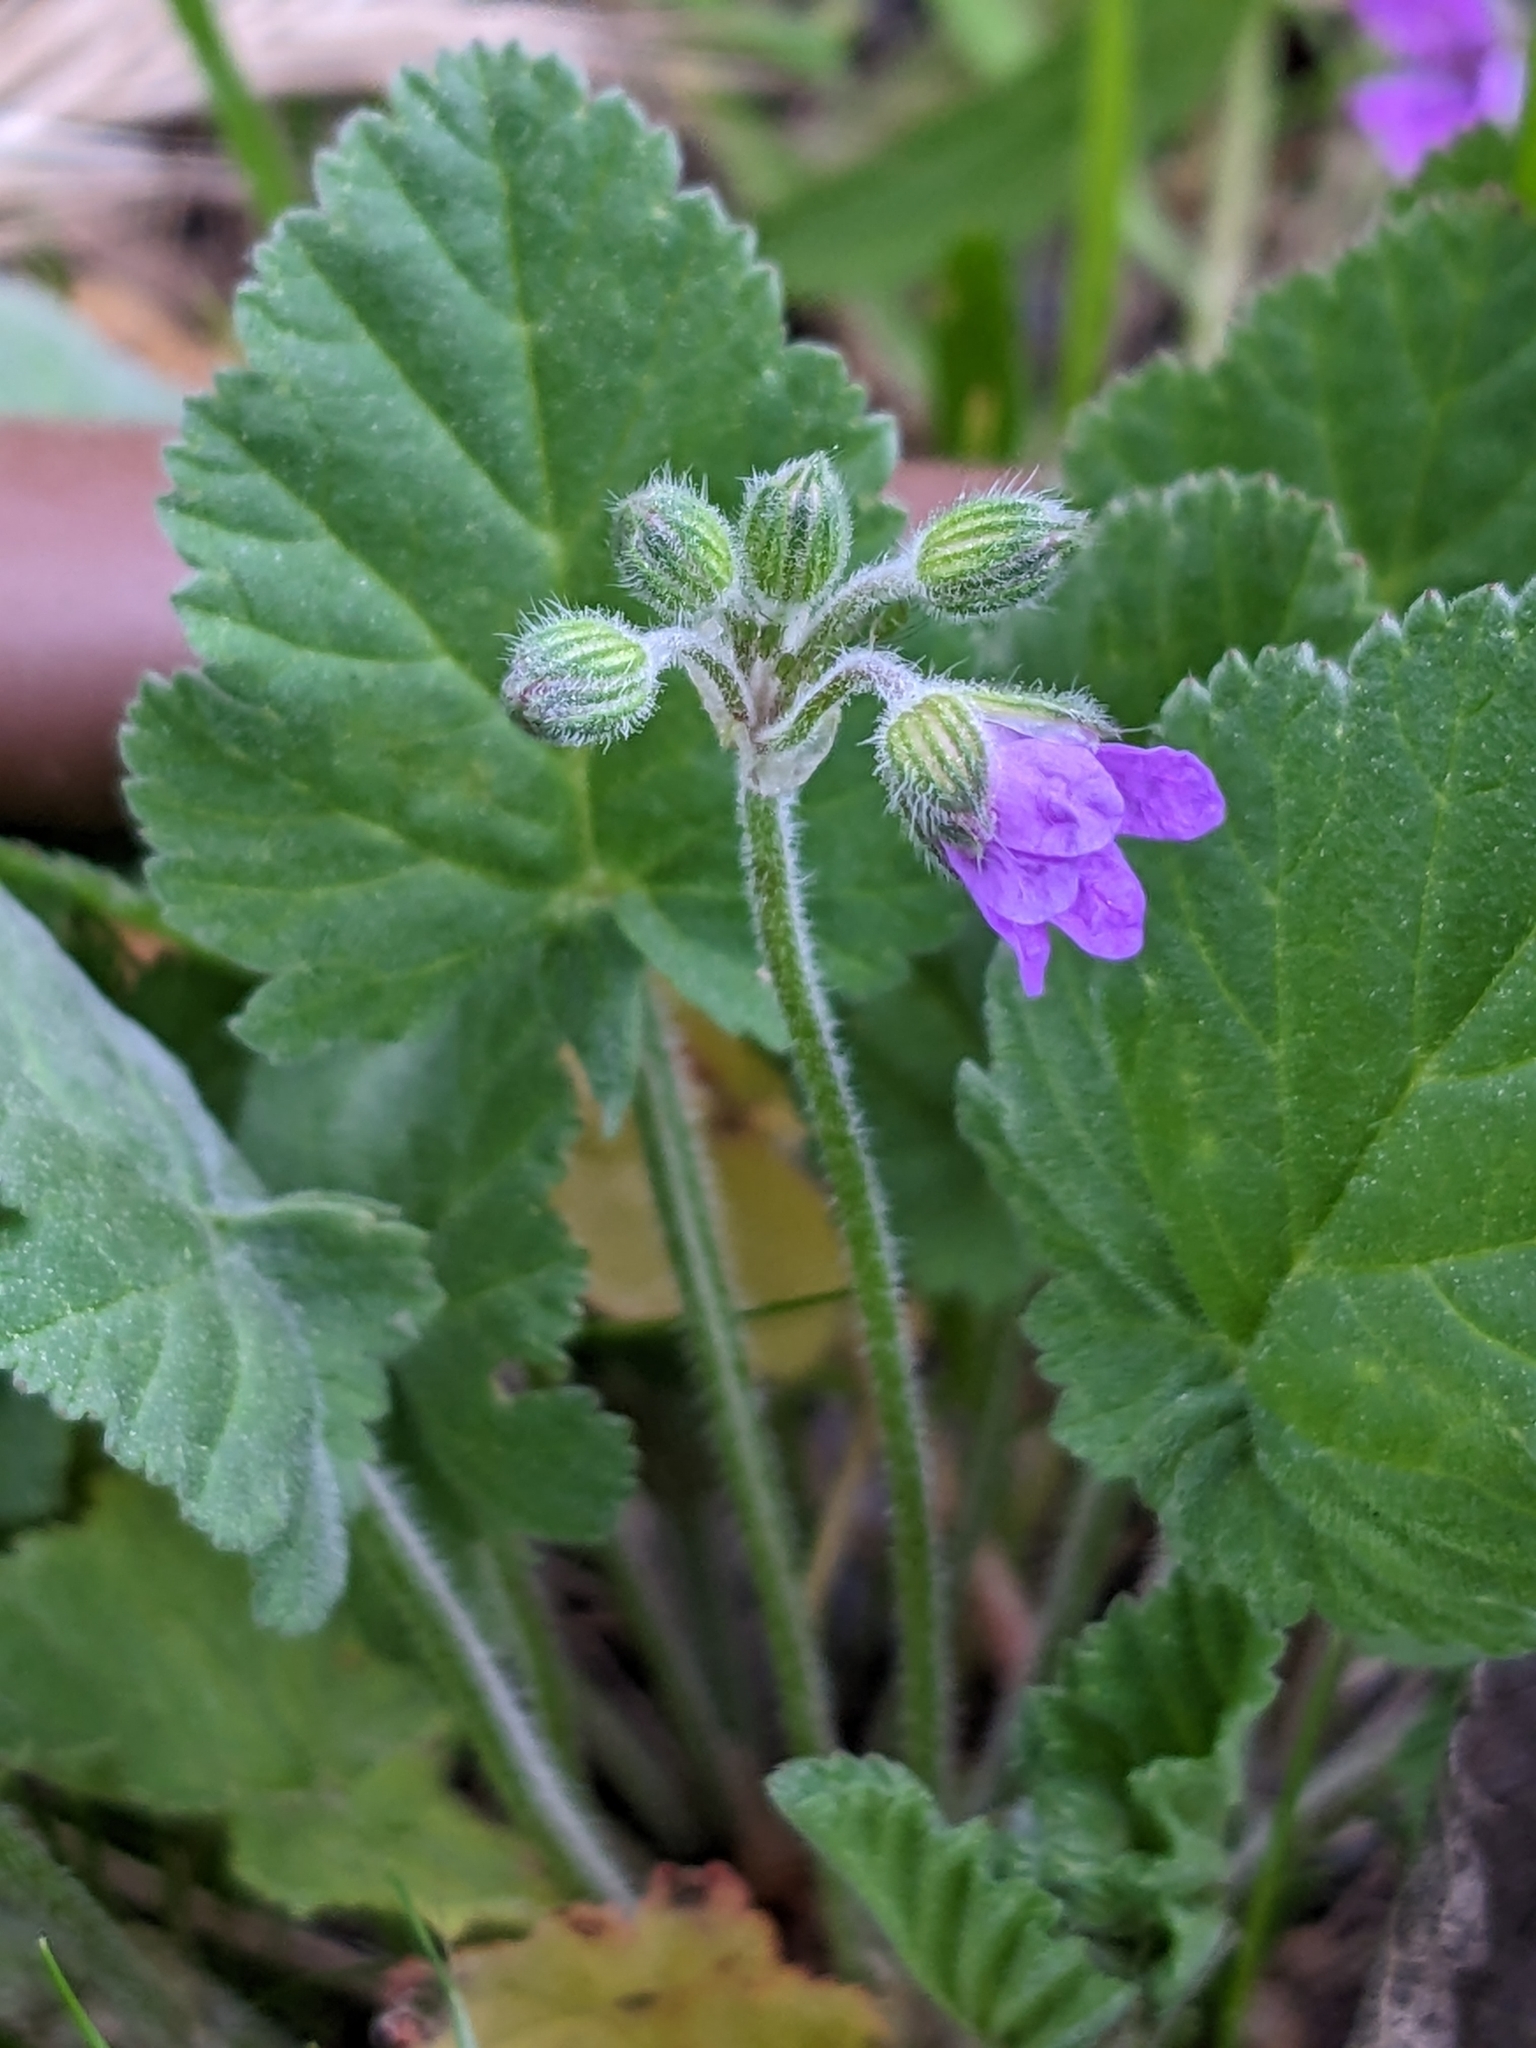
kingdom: Plantae
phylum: Tracheophyta
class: Magnoliopsida
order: Geraniales
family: Geraniaceae
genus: Erodium
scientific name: Erodium malacoides
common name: Soft stork's-bill
